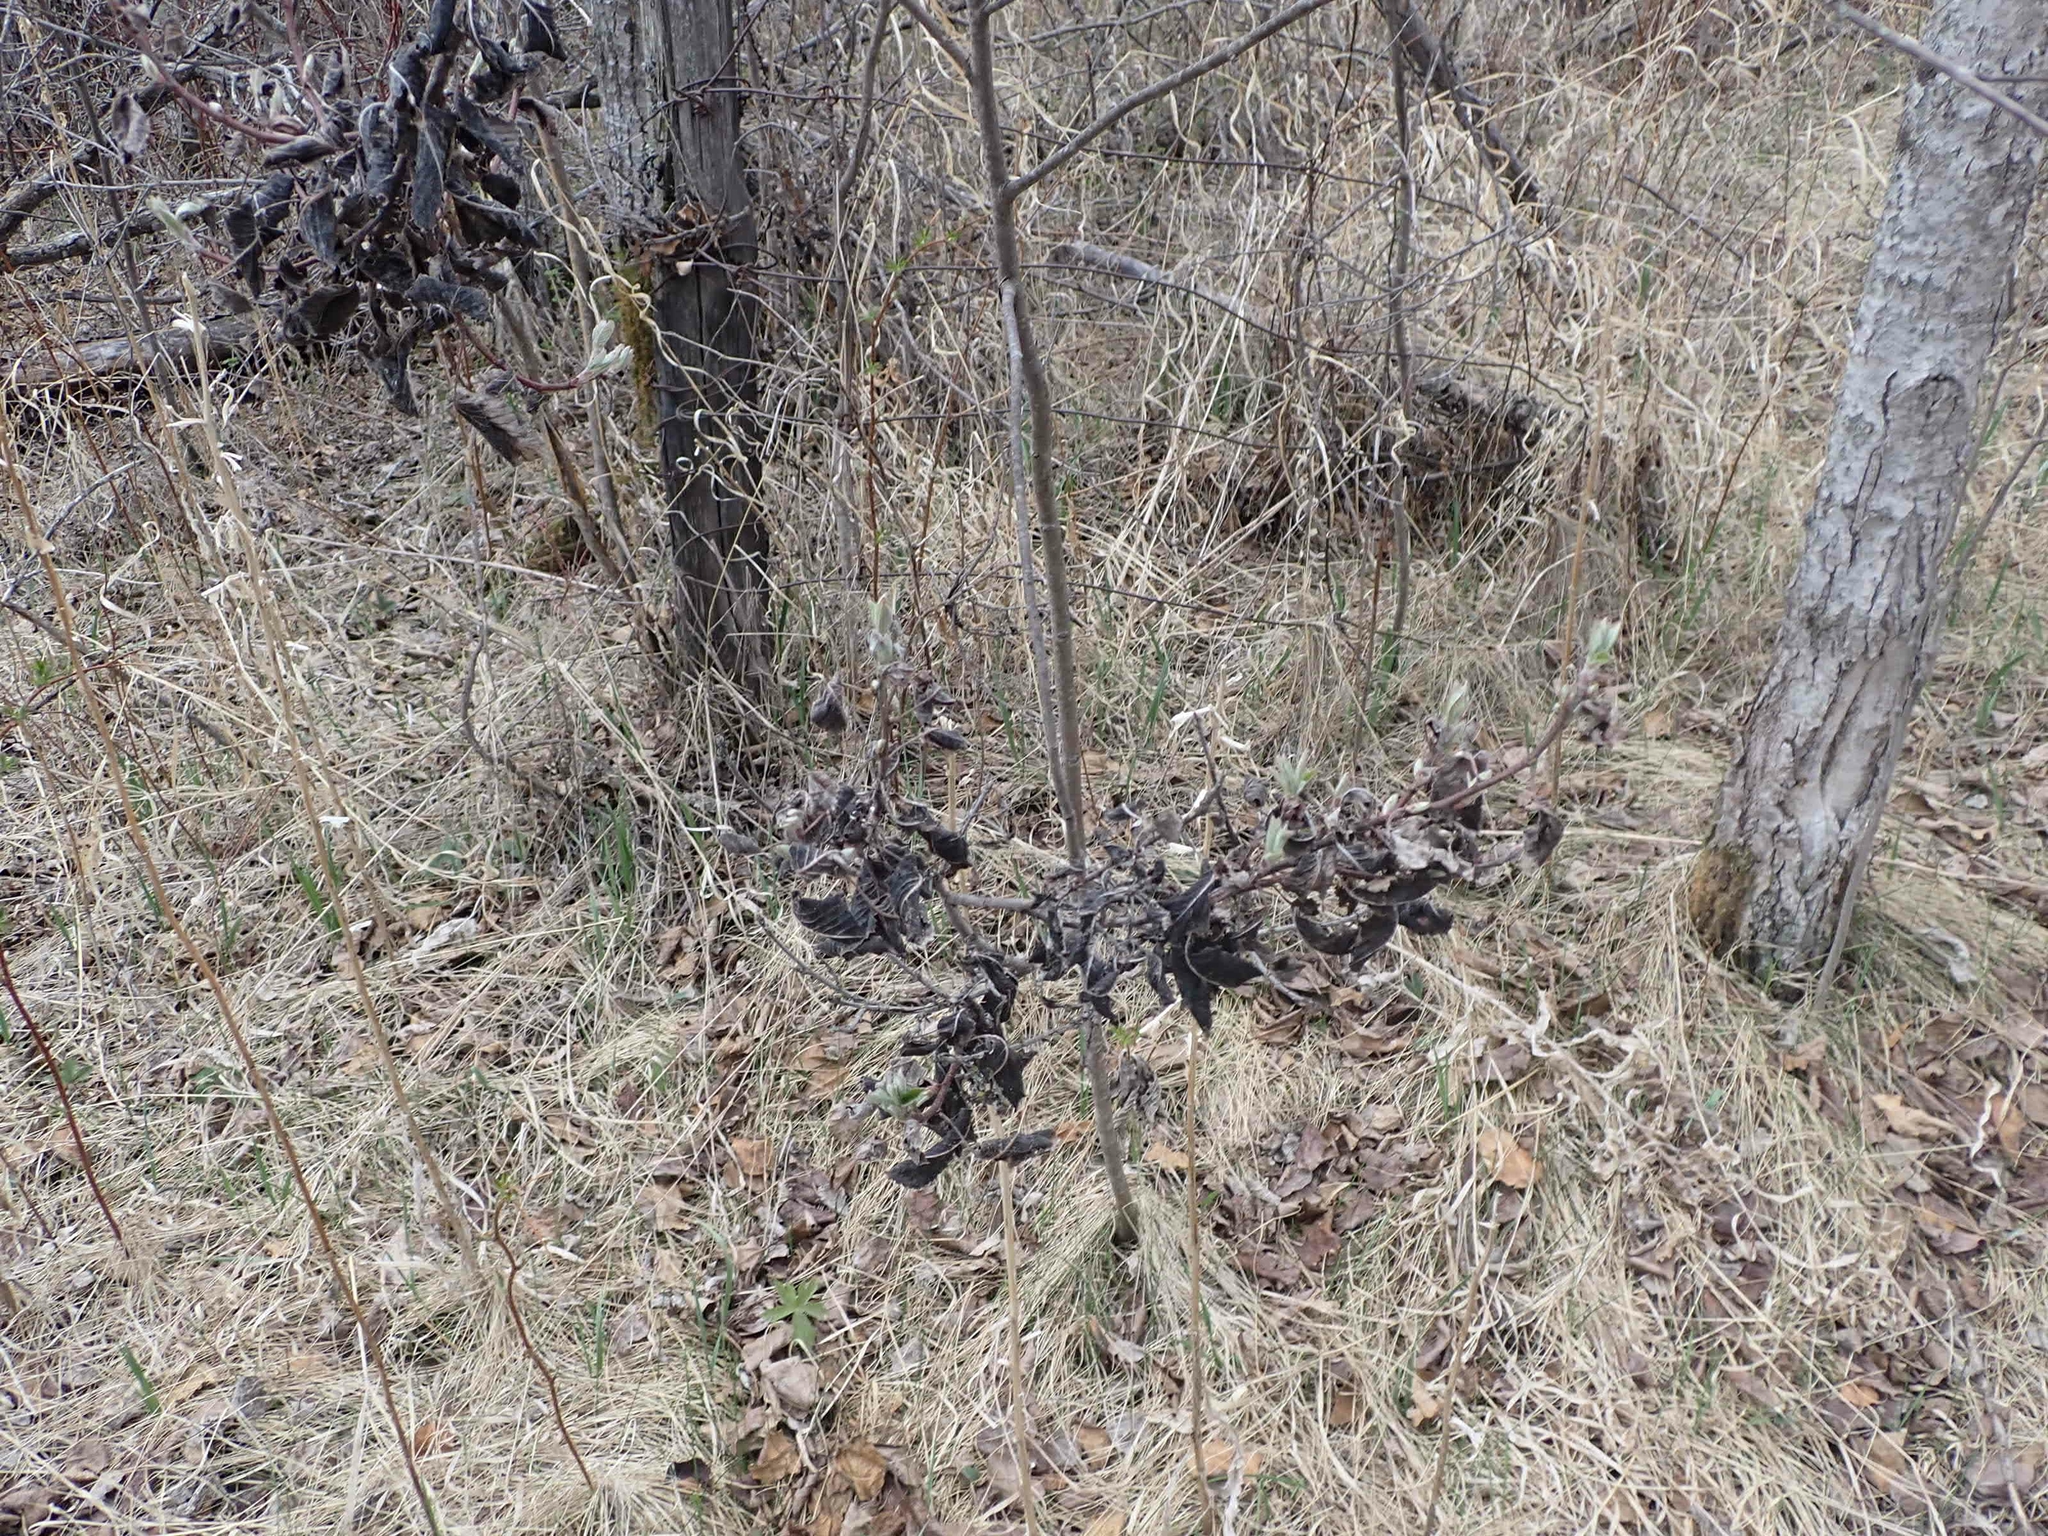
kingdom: Fungi
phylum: Ascomycota
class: Dothideomycetes
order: Venturiales
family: Venturiaceae
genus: Apiosporina
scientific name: Apiosporina collinsii
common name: Black leaf
